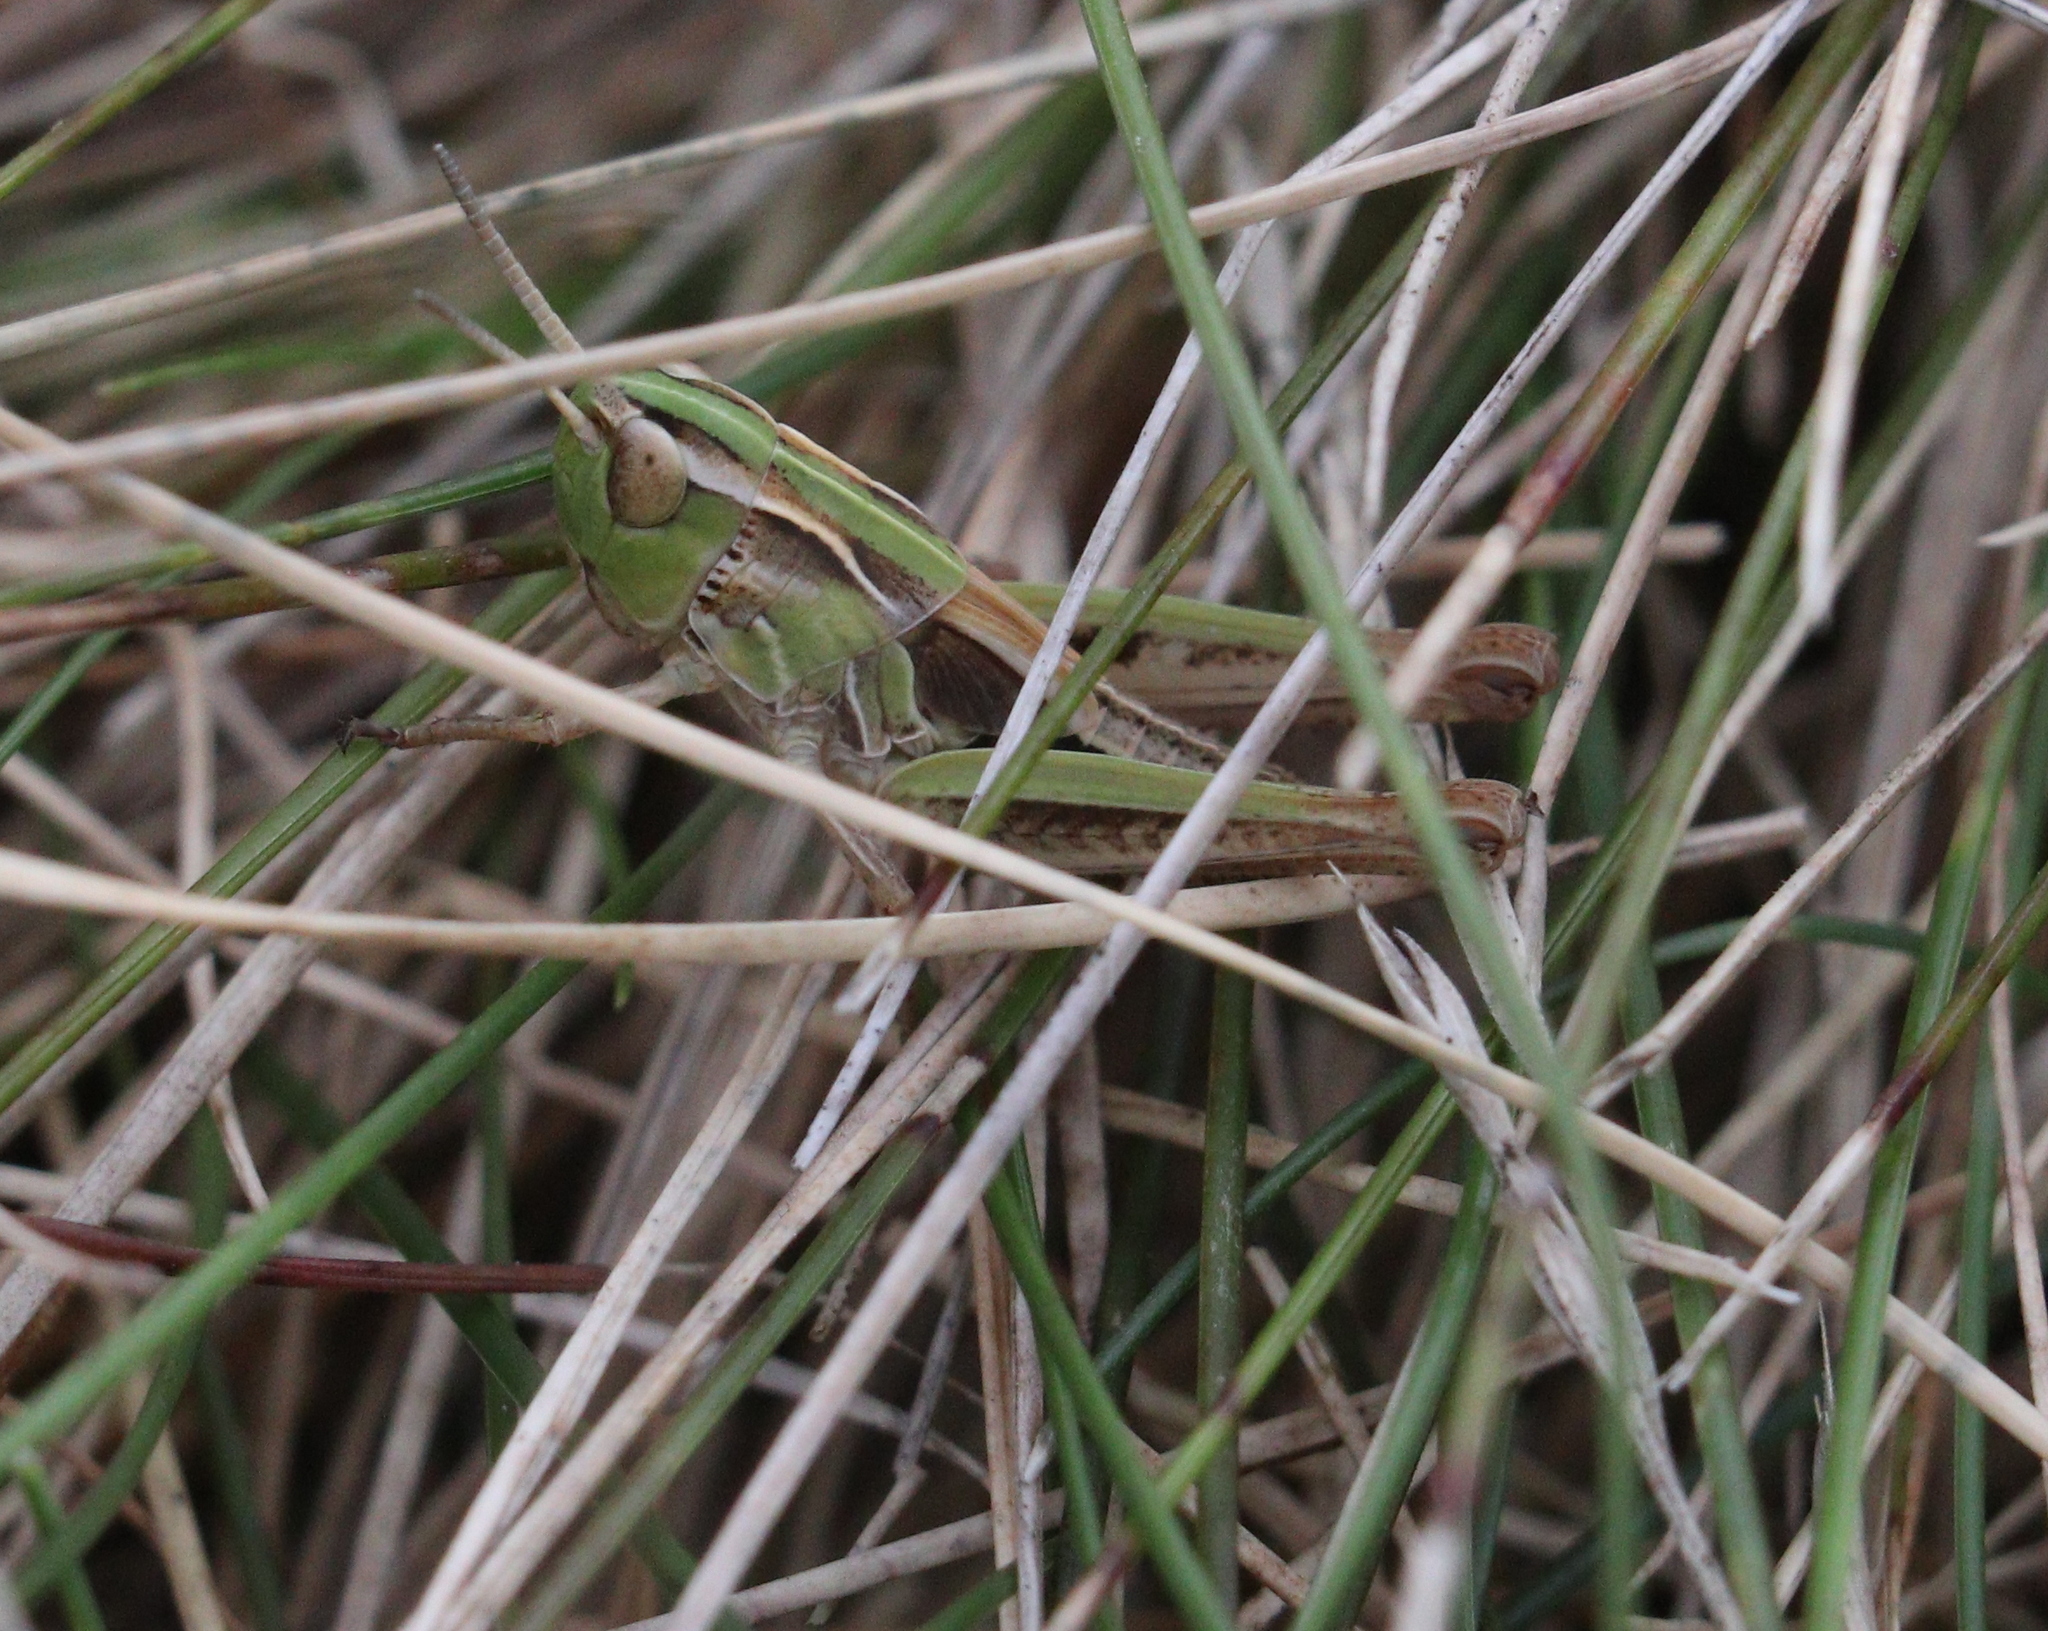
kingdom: Animalia
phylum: Arthropoda
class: Insecta
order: Orthoptera
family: Acrididae
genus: Stenobothrus
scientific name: Stenobothrus stigmaticus
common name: Lesser mottled grasshopper
